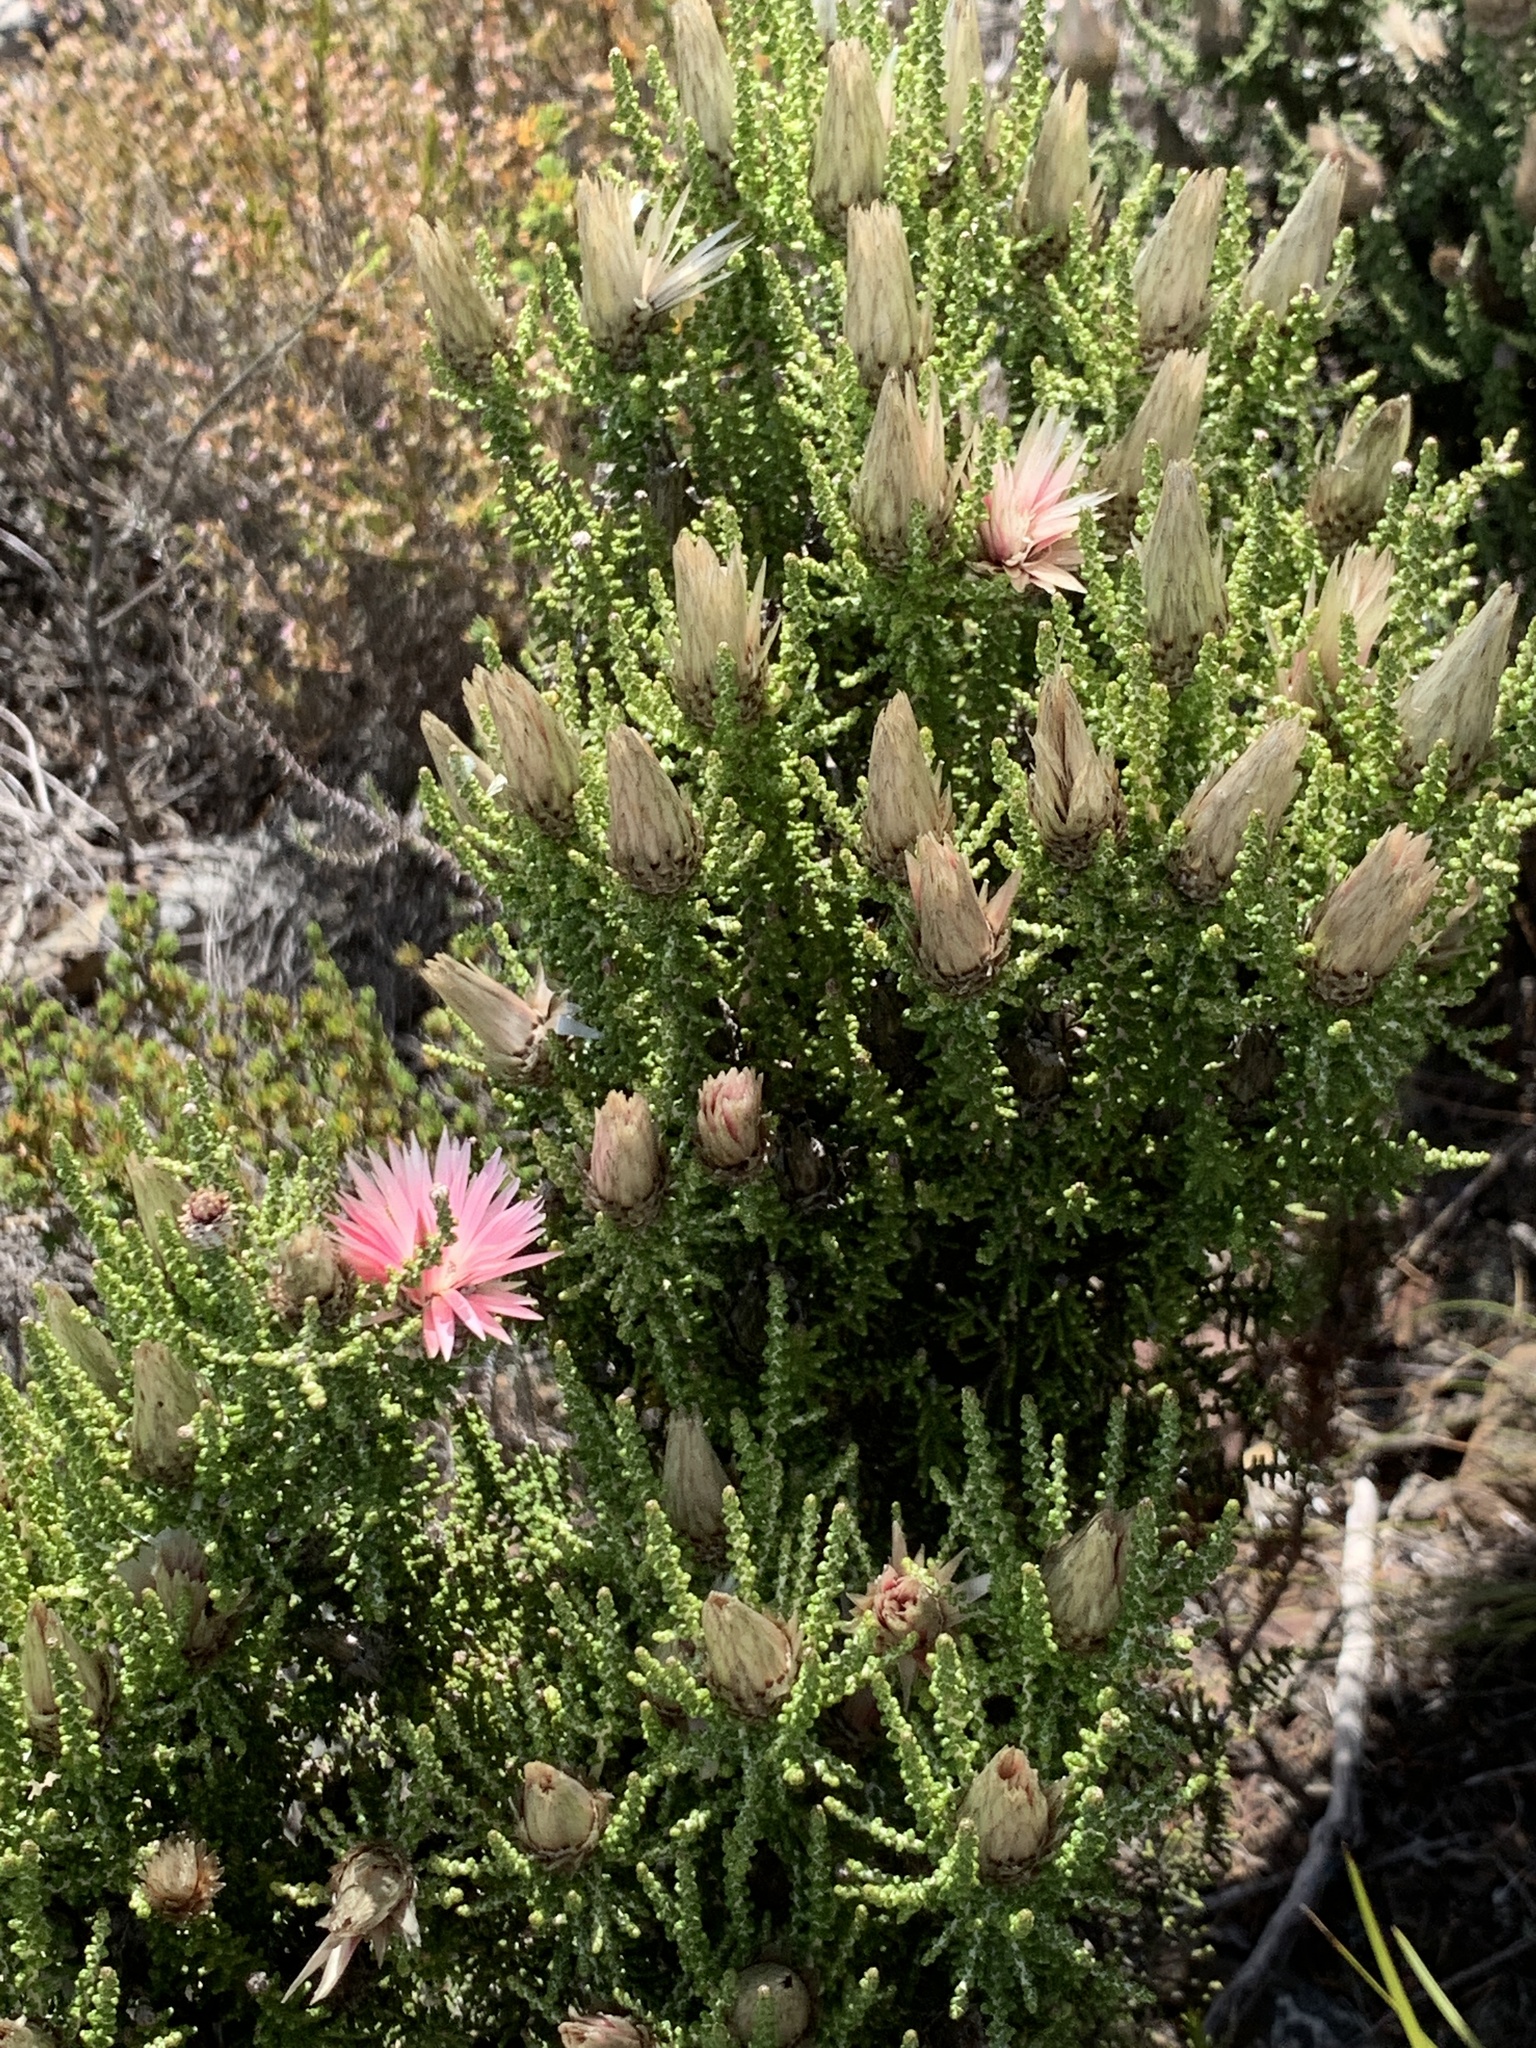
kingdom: Plantae
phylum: Tracheophyta
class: Magnoliopsida
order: Asterales
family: Asteraceae
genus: Phaenocoma
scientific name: Phaenocoma prolifera
